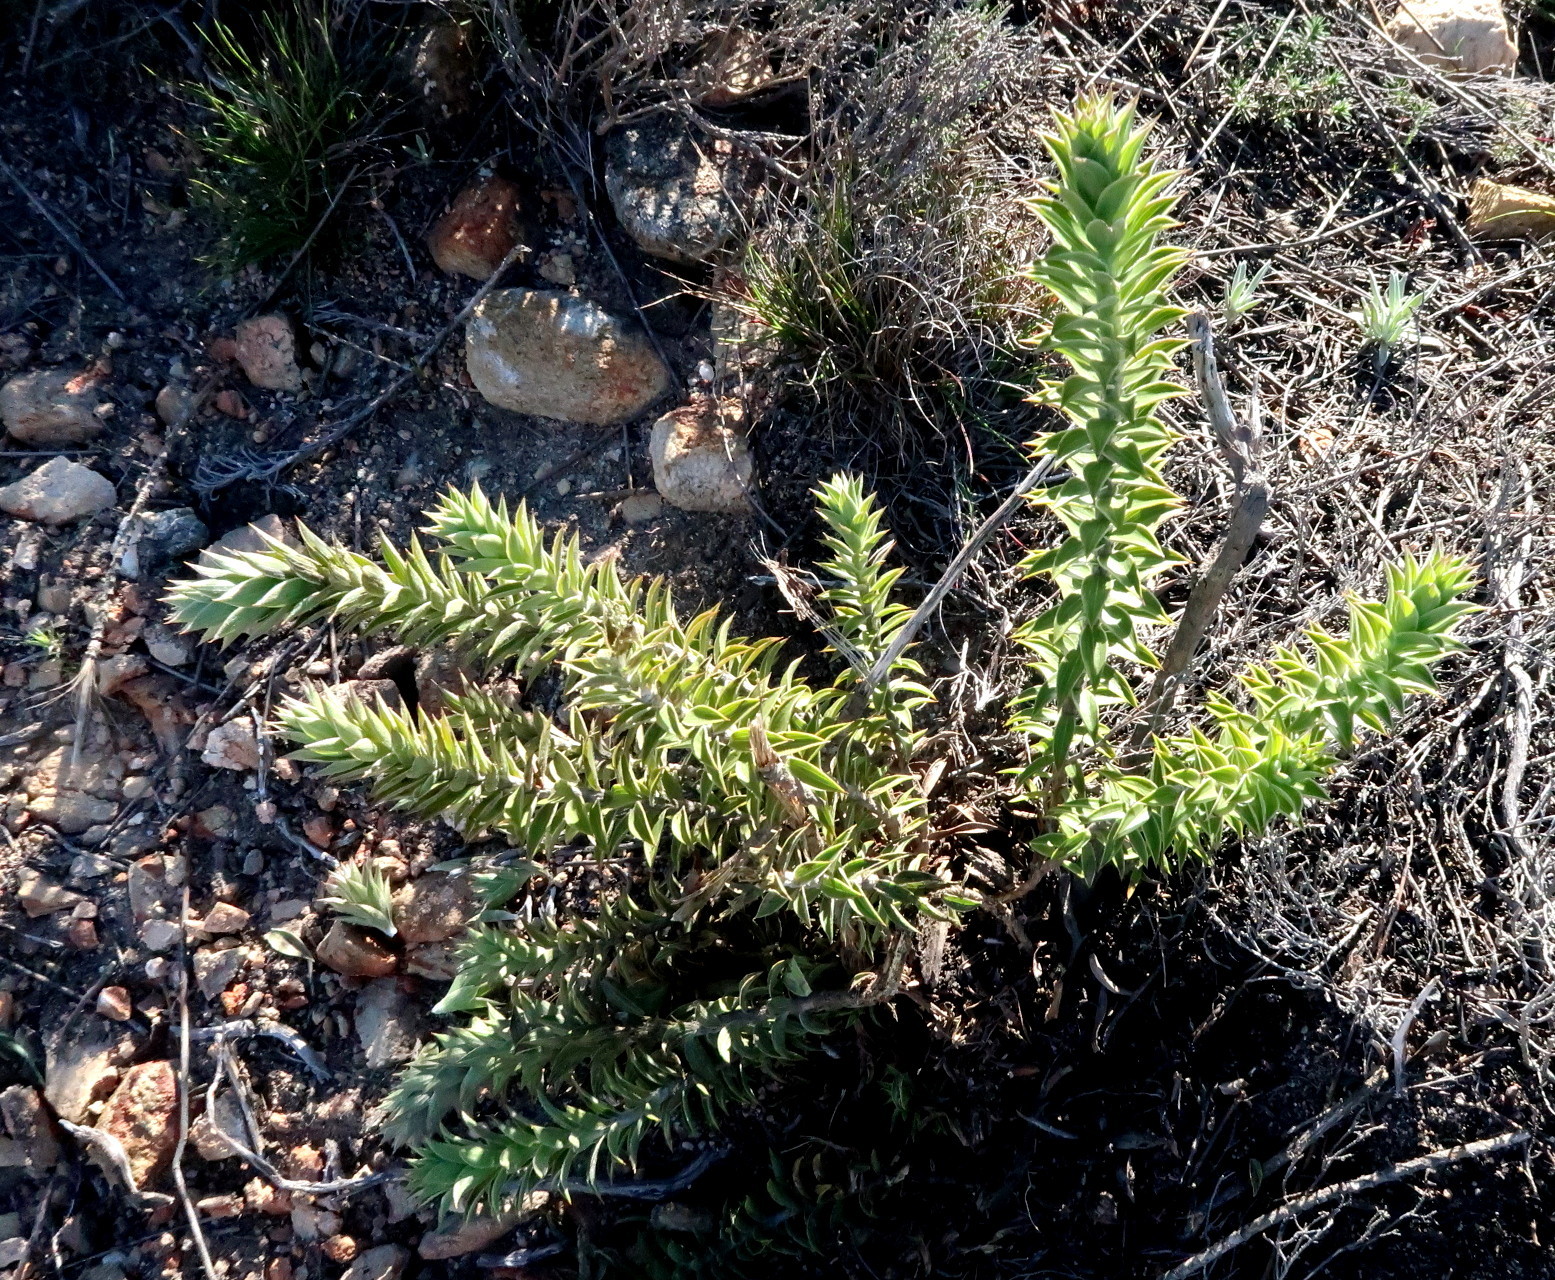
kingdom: Plantae
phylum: Tracheophyta
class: Magnoliopsida
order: Asterales
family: Asteraceae
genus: Oedera
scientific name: Oedera speciosa
